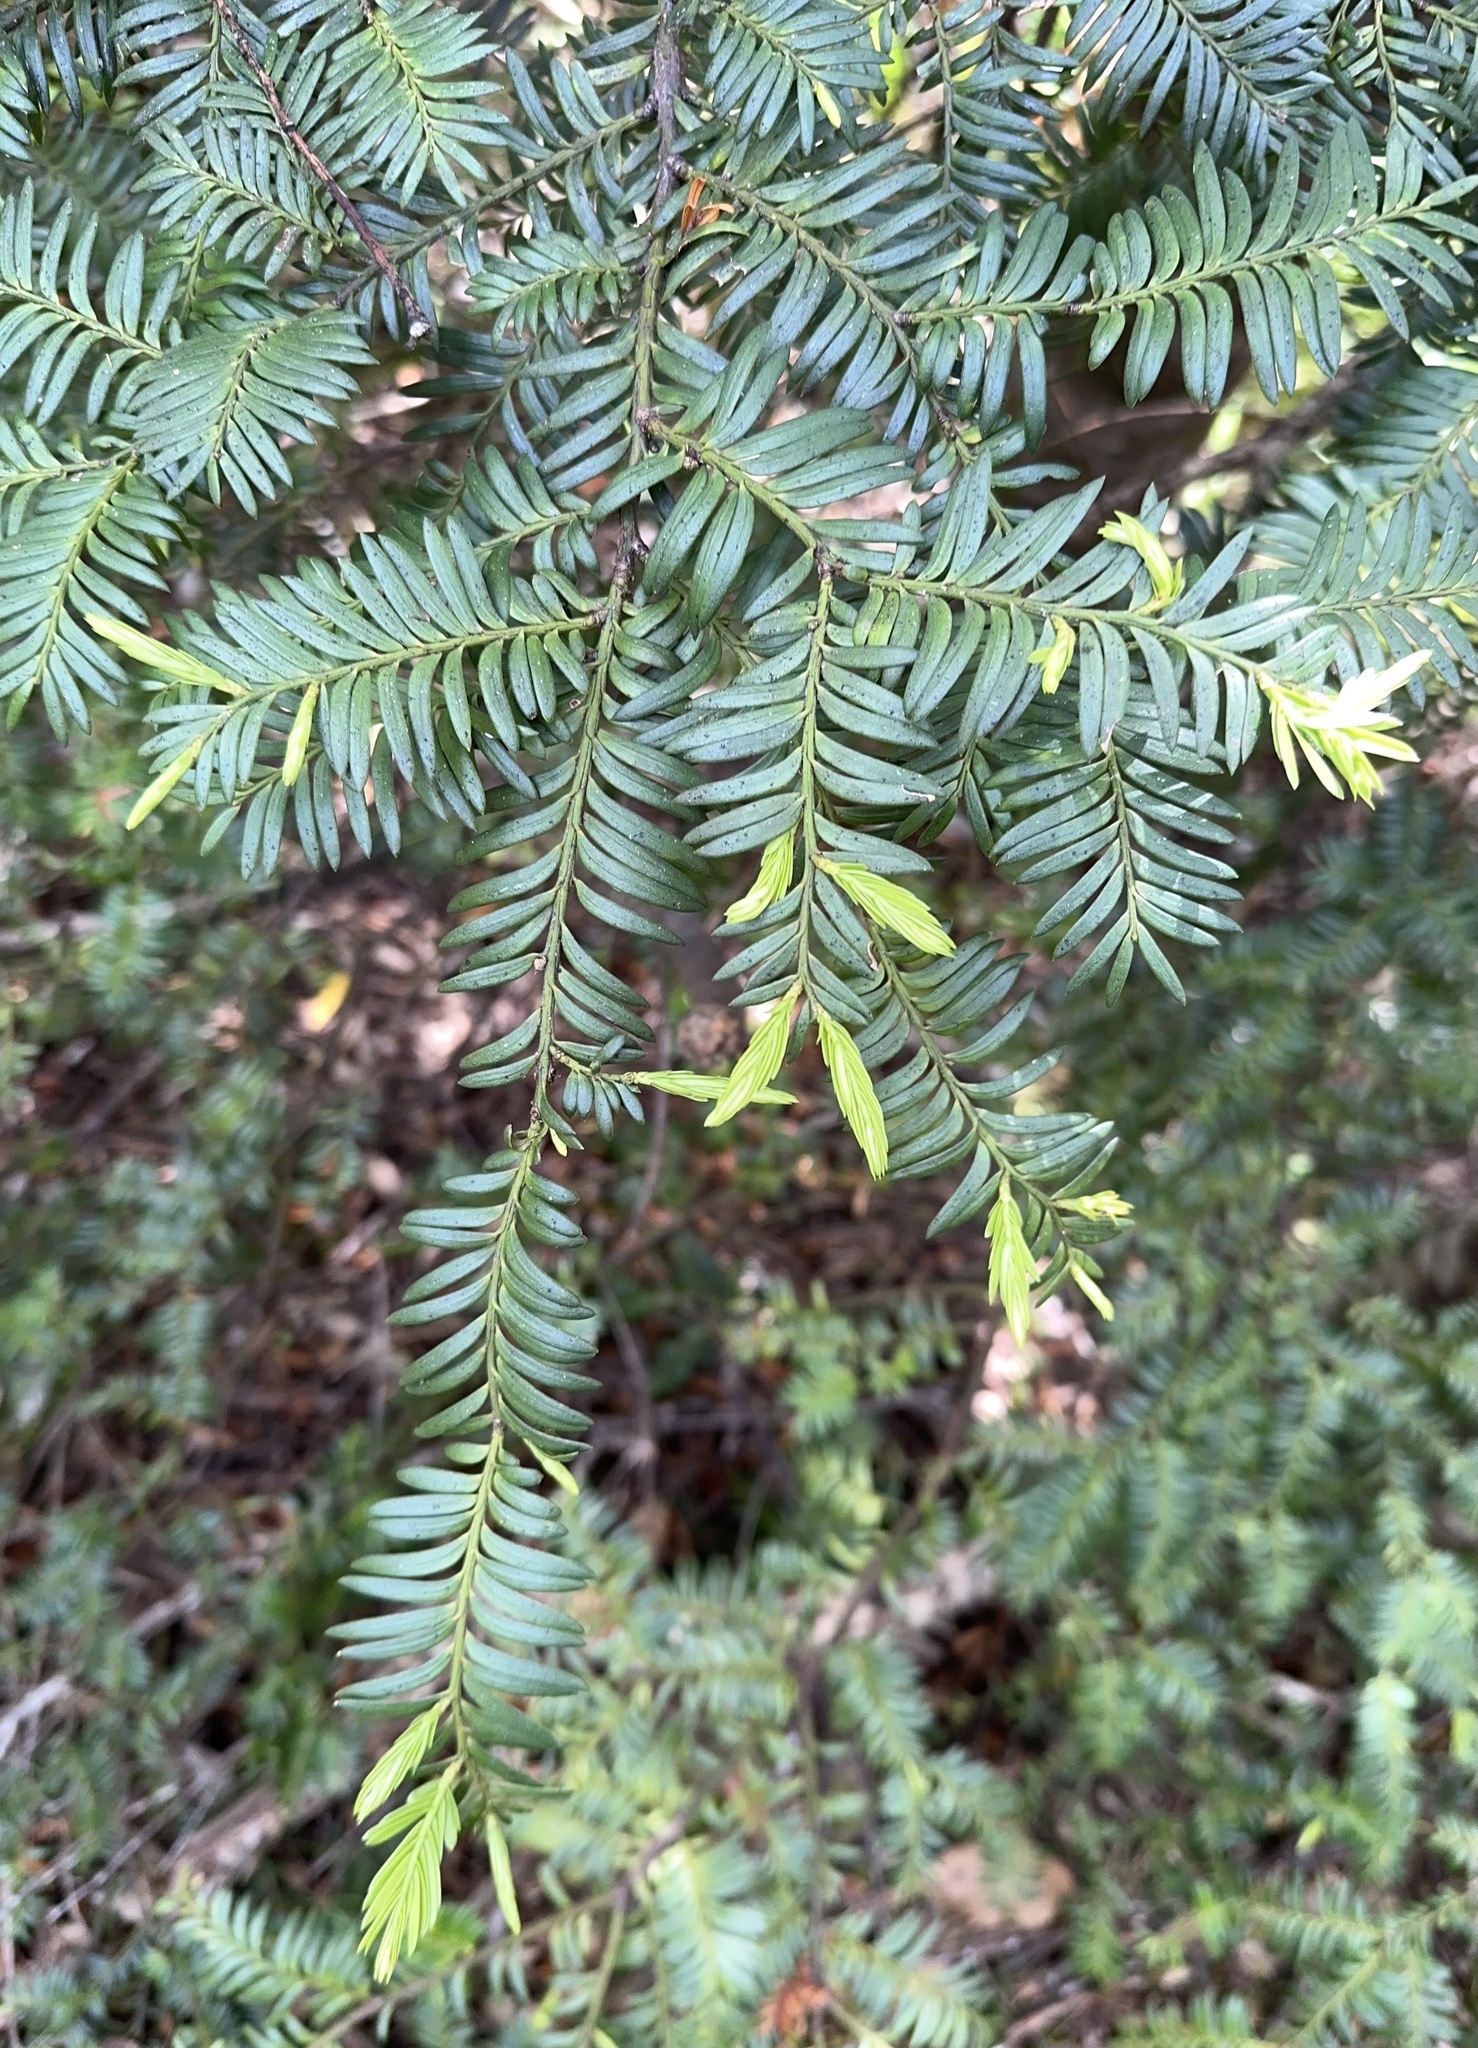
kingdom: Plantae
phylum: Tracheophyta
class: Pinopsida
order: Pinales
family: Podocarpaceae
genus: Prumnopitys
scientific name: Prumnopitys ferruginea
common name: Brown pine
